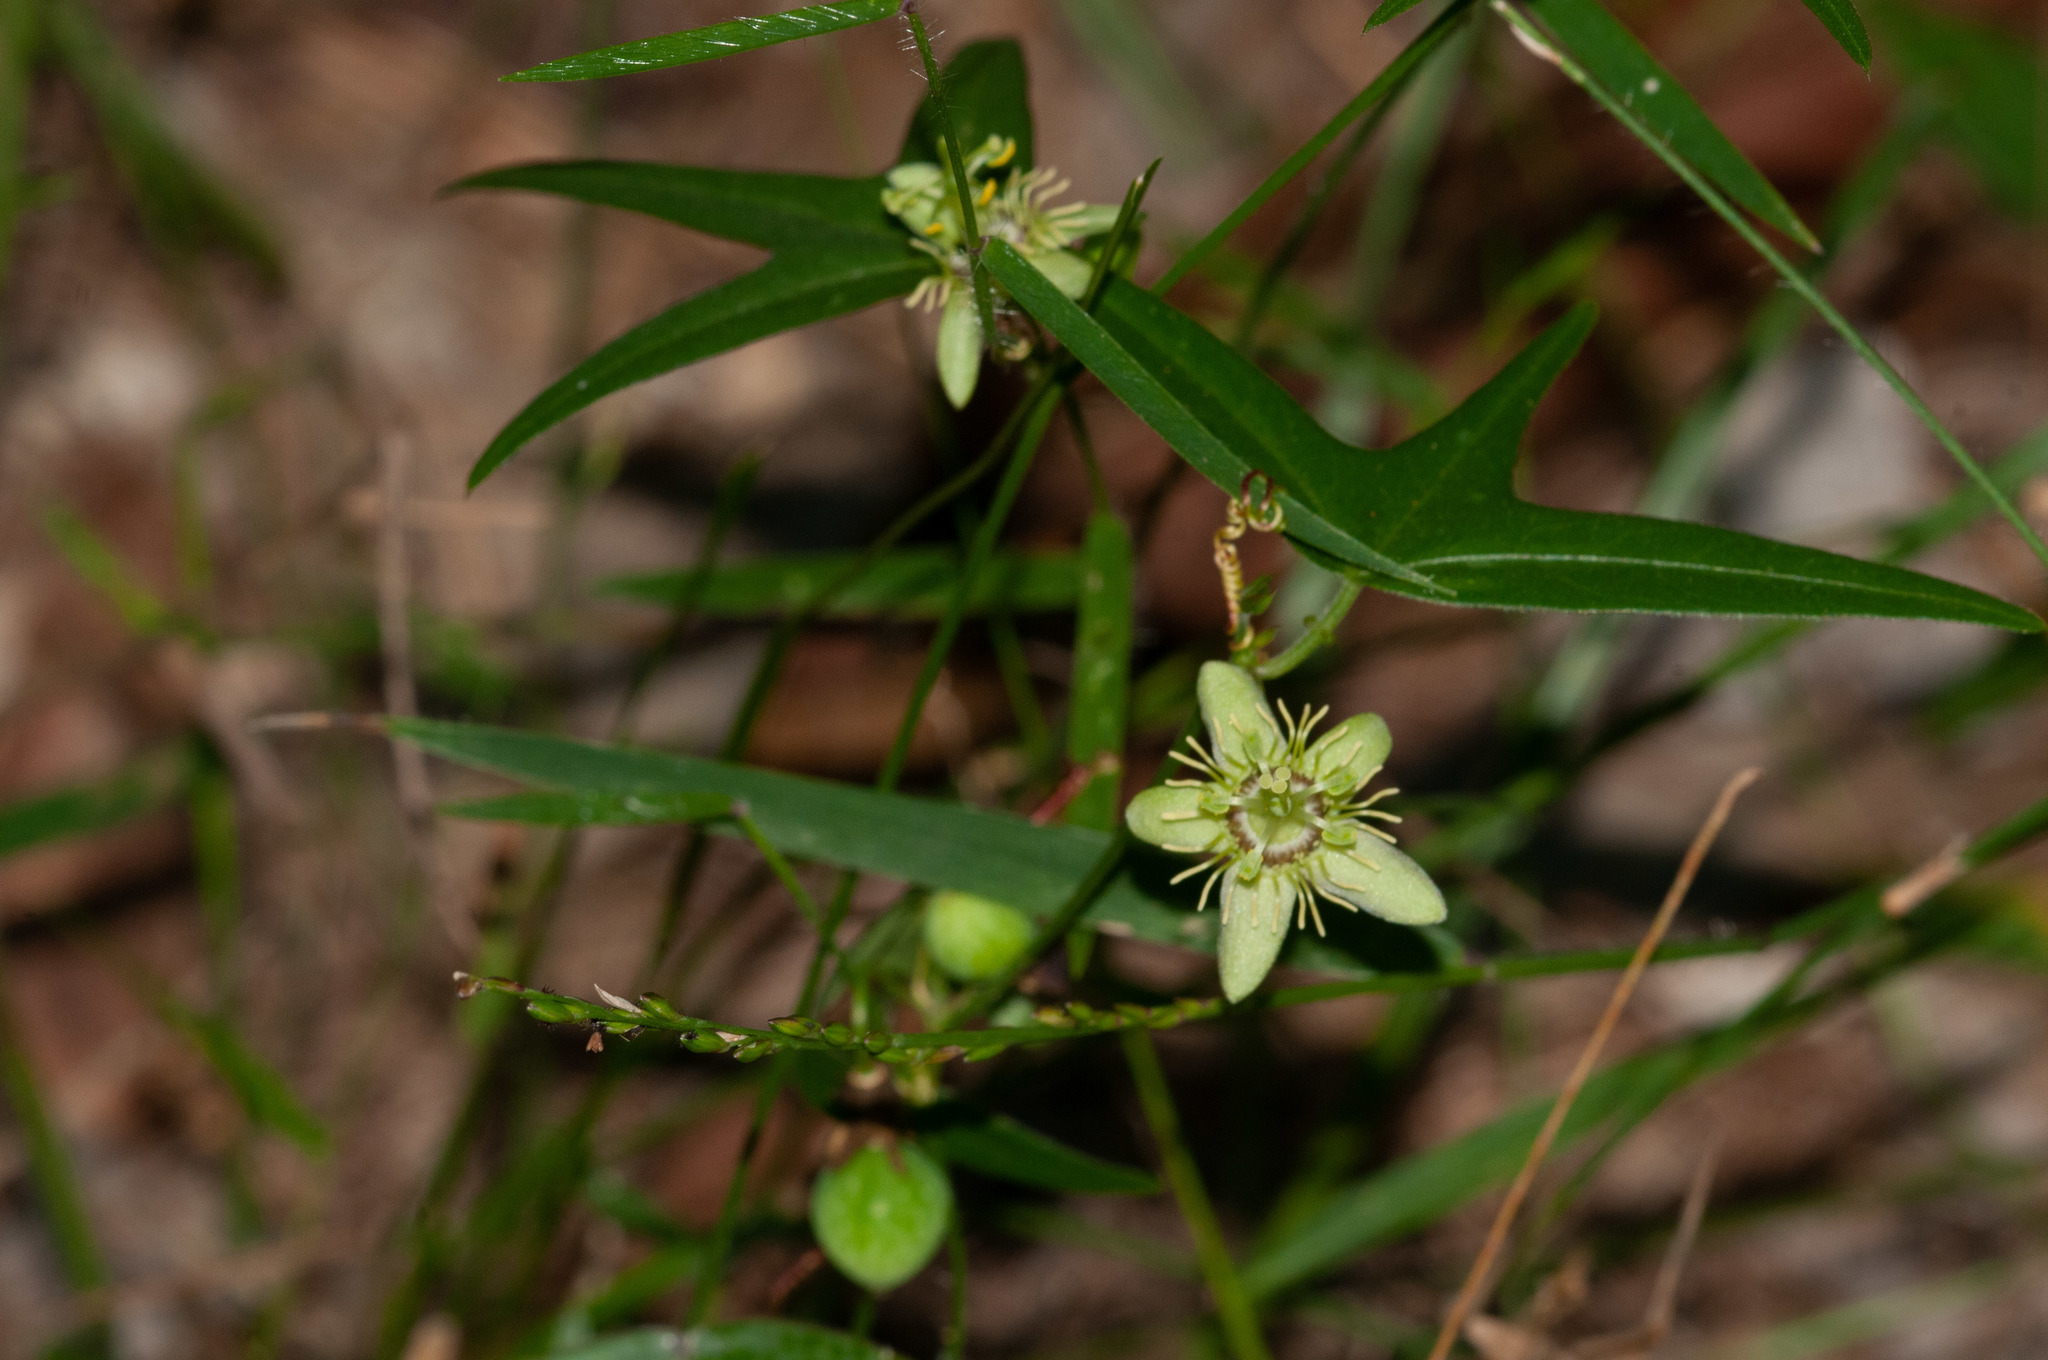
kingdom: Plantae
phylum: Tracheophyta
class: Magnoliopsida
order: Malpighiales
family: Passifloraceae
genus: Passiflora
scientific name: Passiflora pallida
